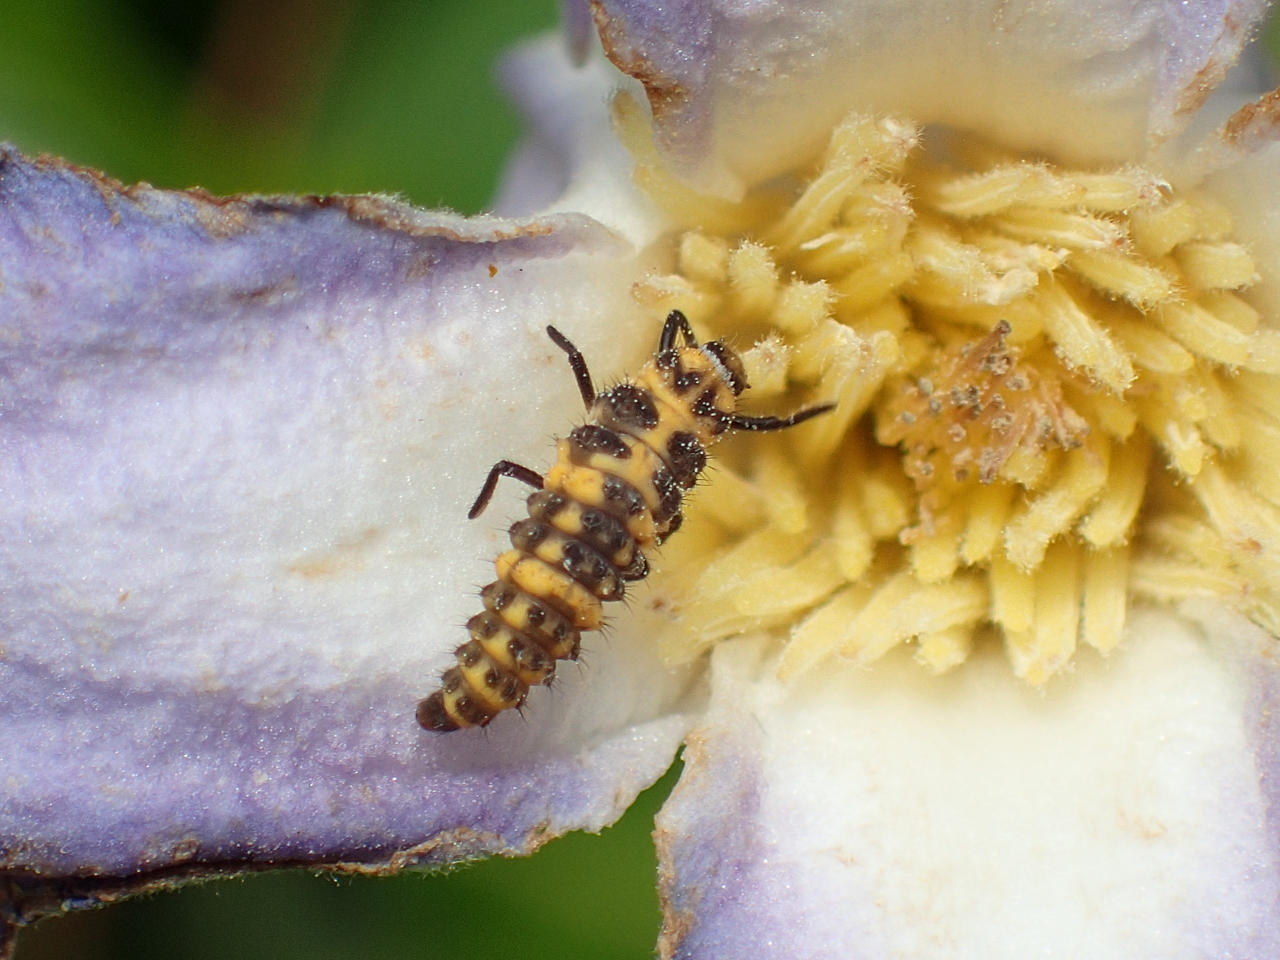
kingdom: Animalia
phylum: Arthropoda
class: Insecta
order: Coleoptera
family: Coccinellidae
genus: Coleomegilla
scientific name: Coleomegilla maculata
